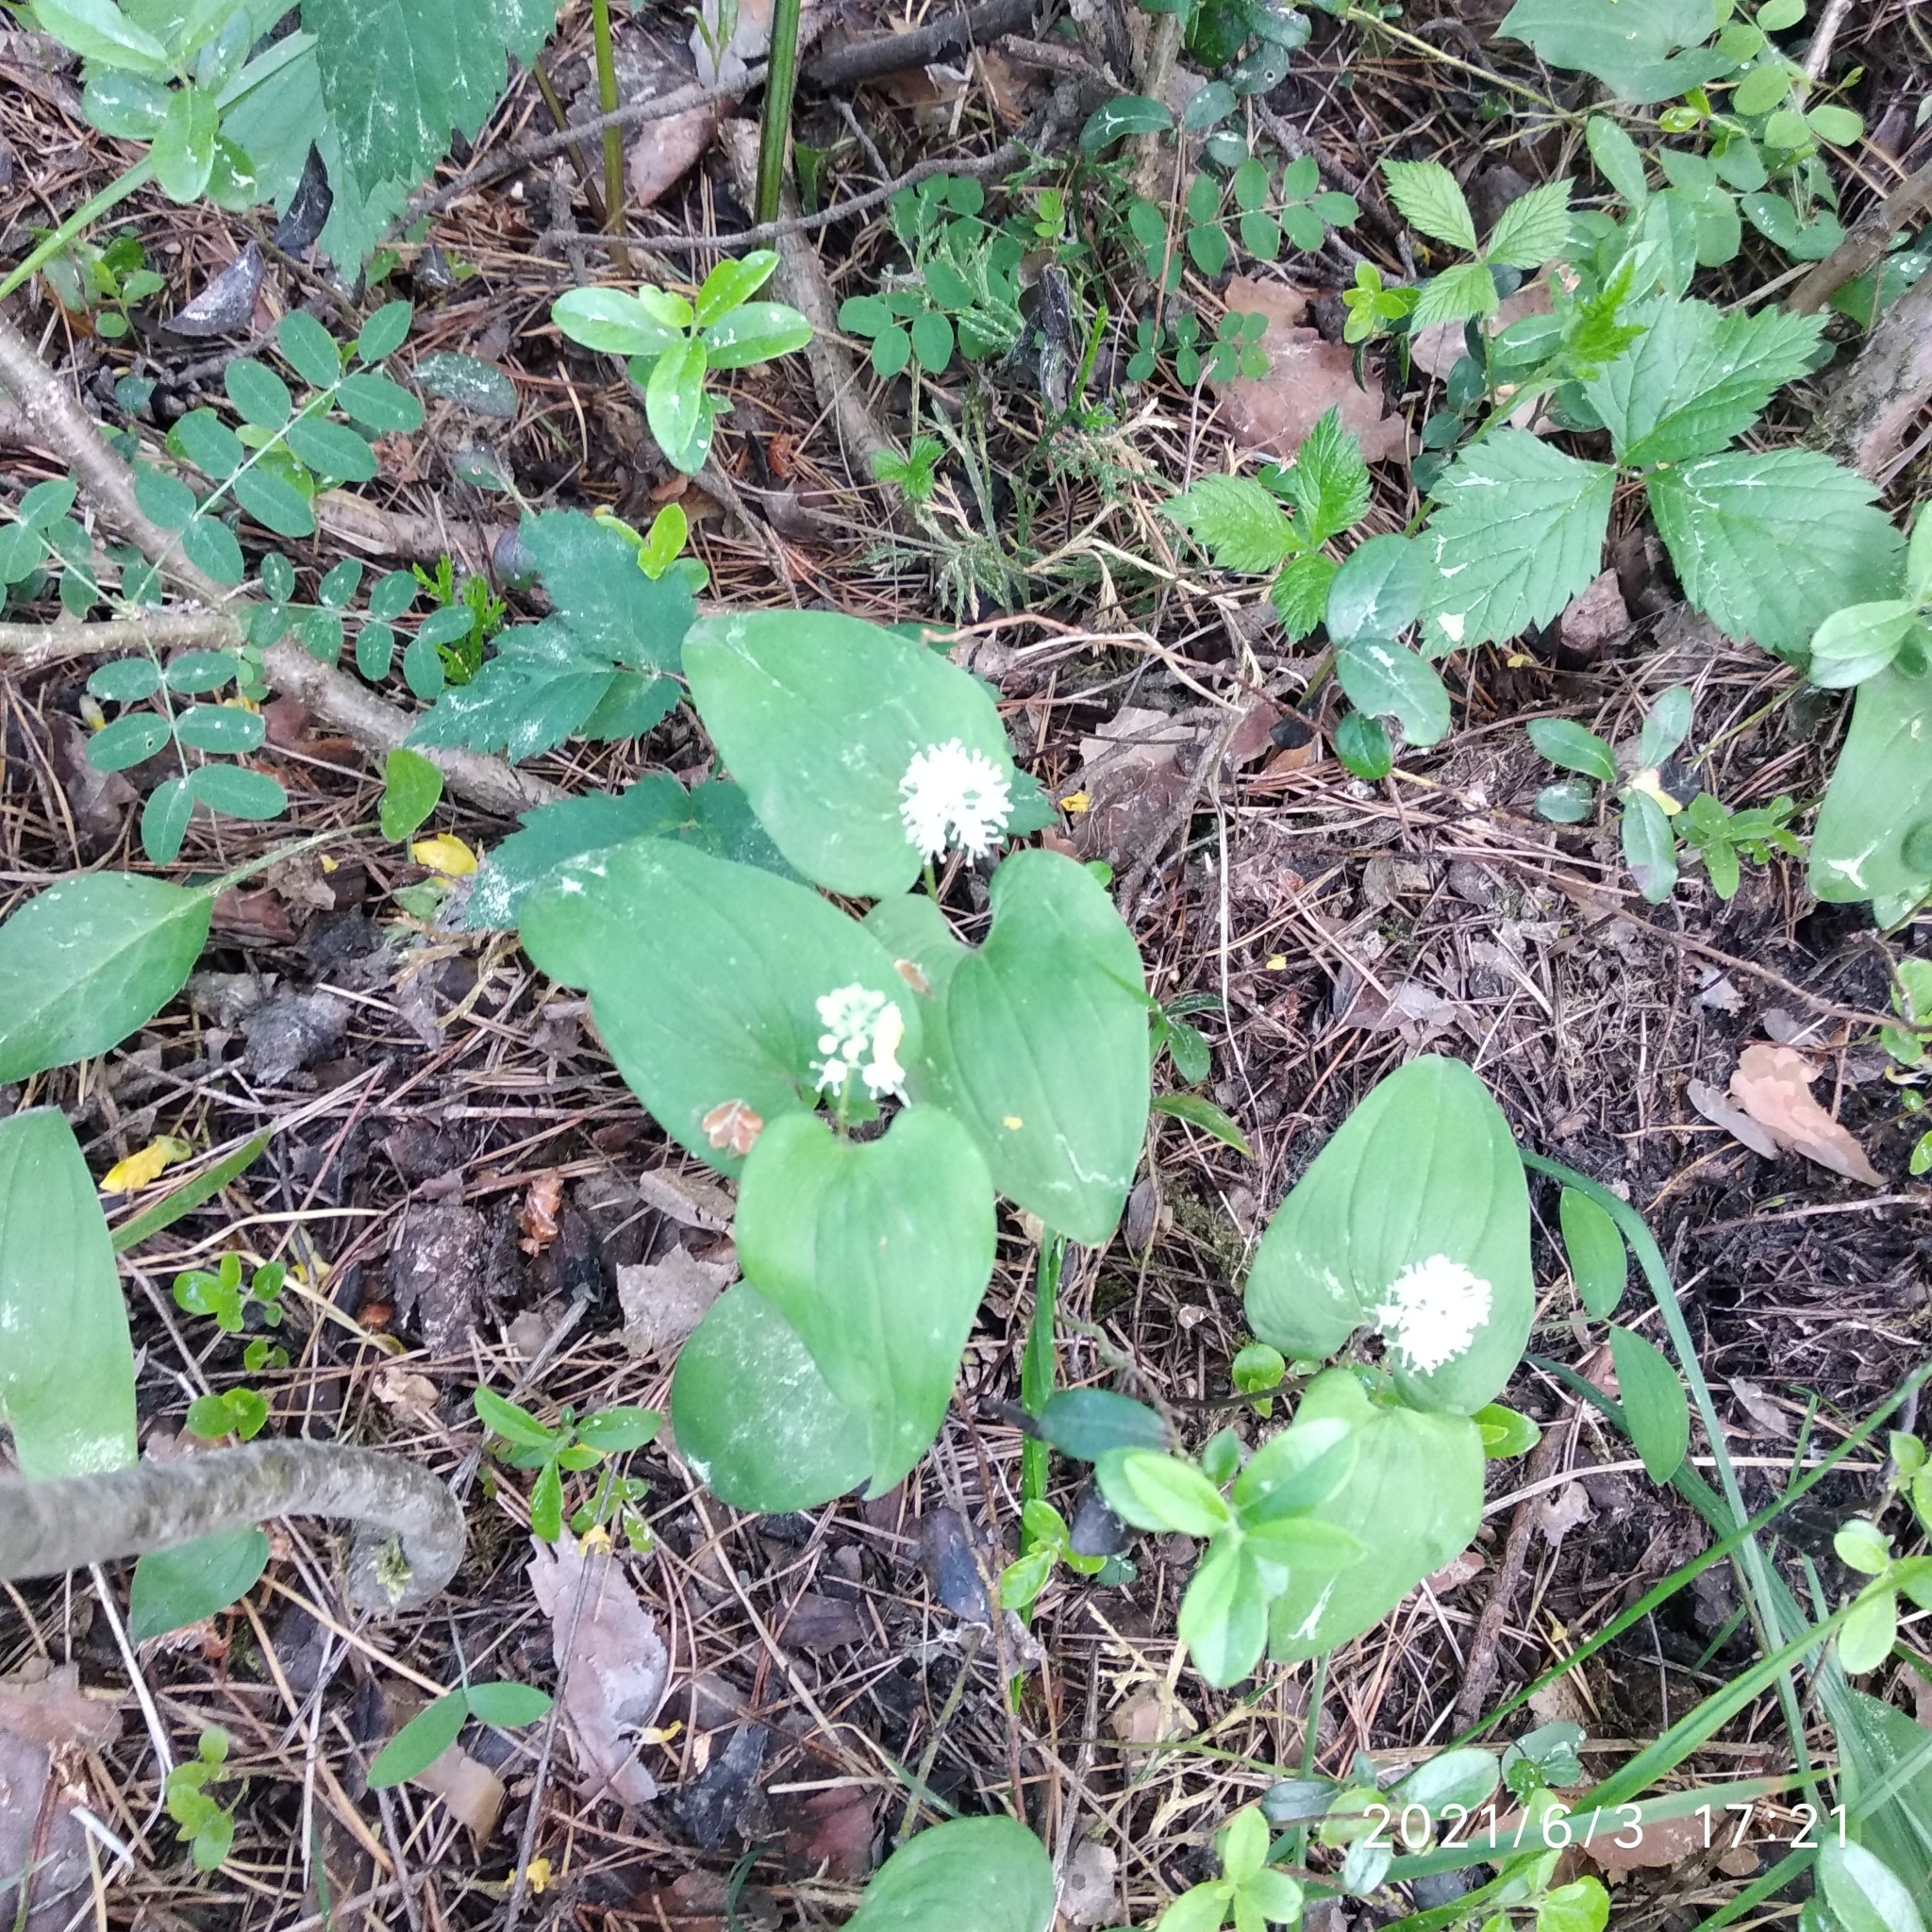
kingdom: Plantae
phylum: Tracheophyta
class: Liliopsida
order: Asparagales
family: Asparagaceae
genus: Maianthemum
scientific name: Maianthemum bifolium
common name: May lily
